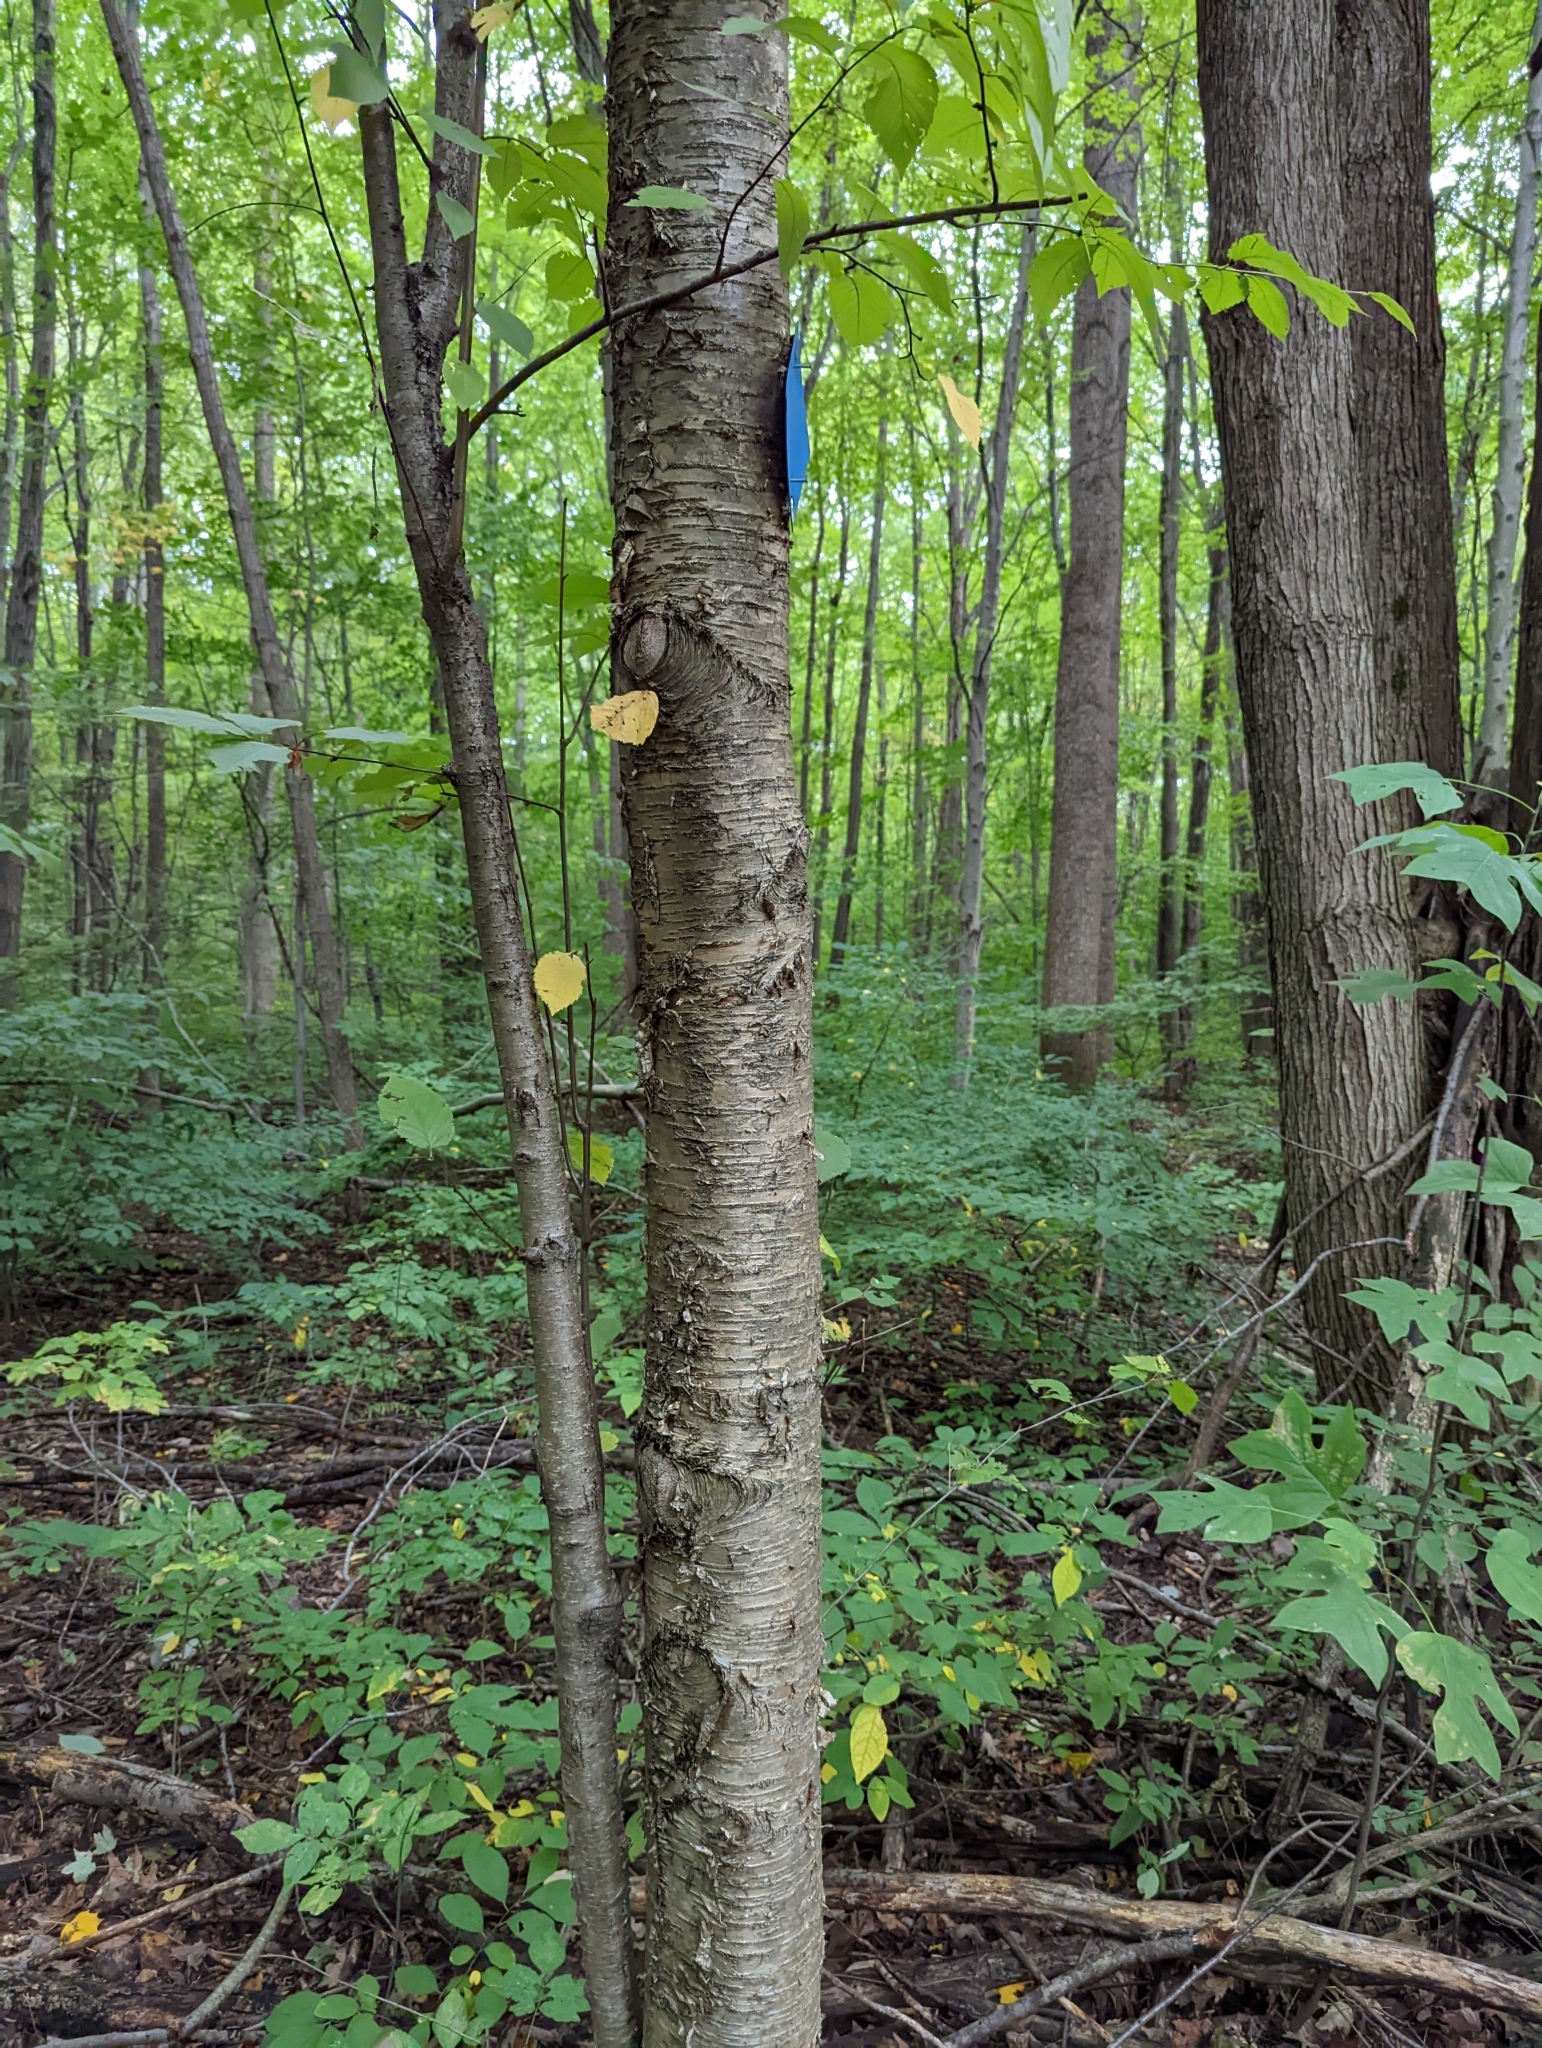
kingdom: Plantae
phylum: Tracheophyta
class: Magnoliopsida
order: Fagales
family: Betulaceae
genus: Betula
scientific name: Betula alleghaniensis
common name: Yellow birch
